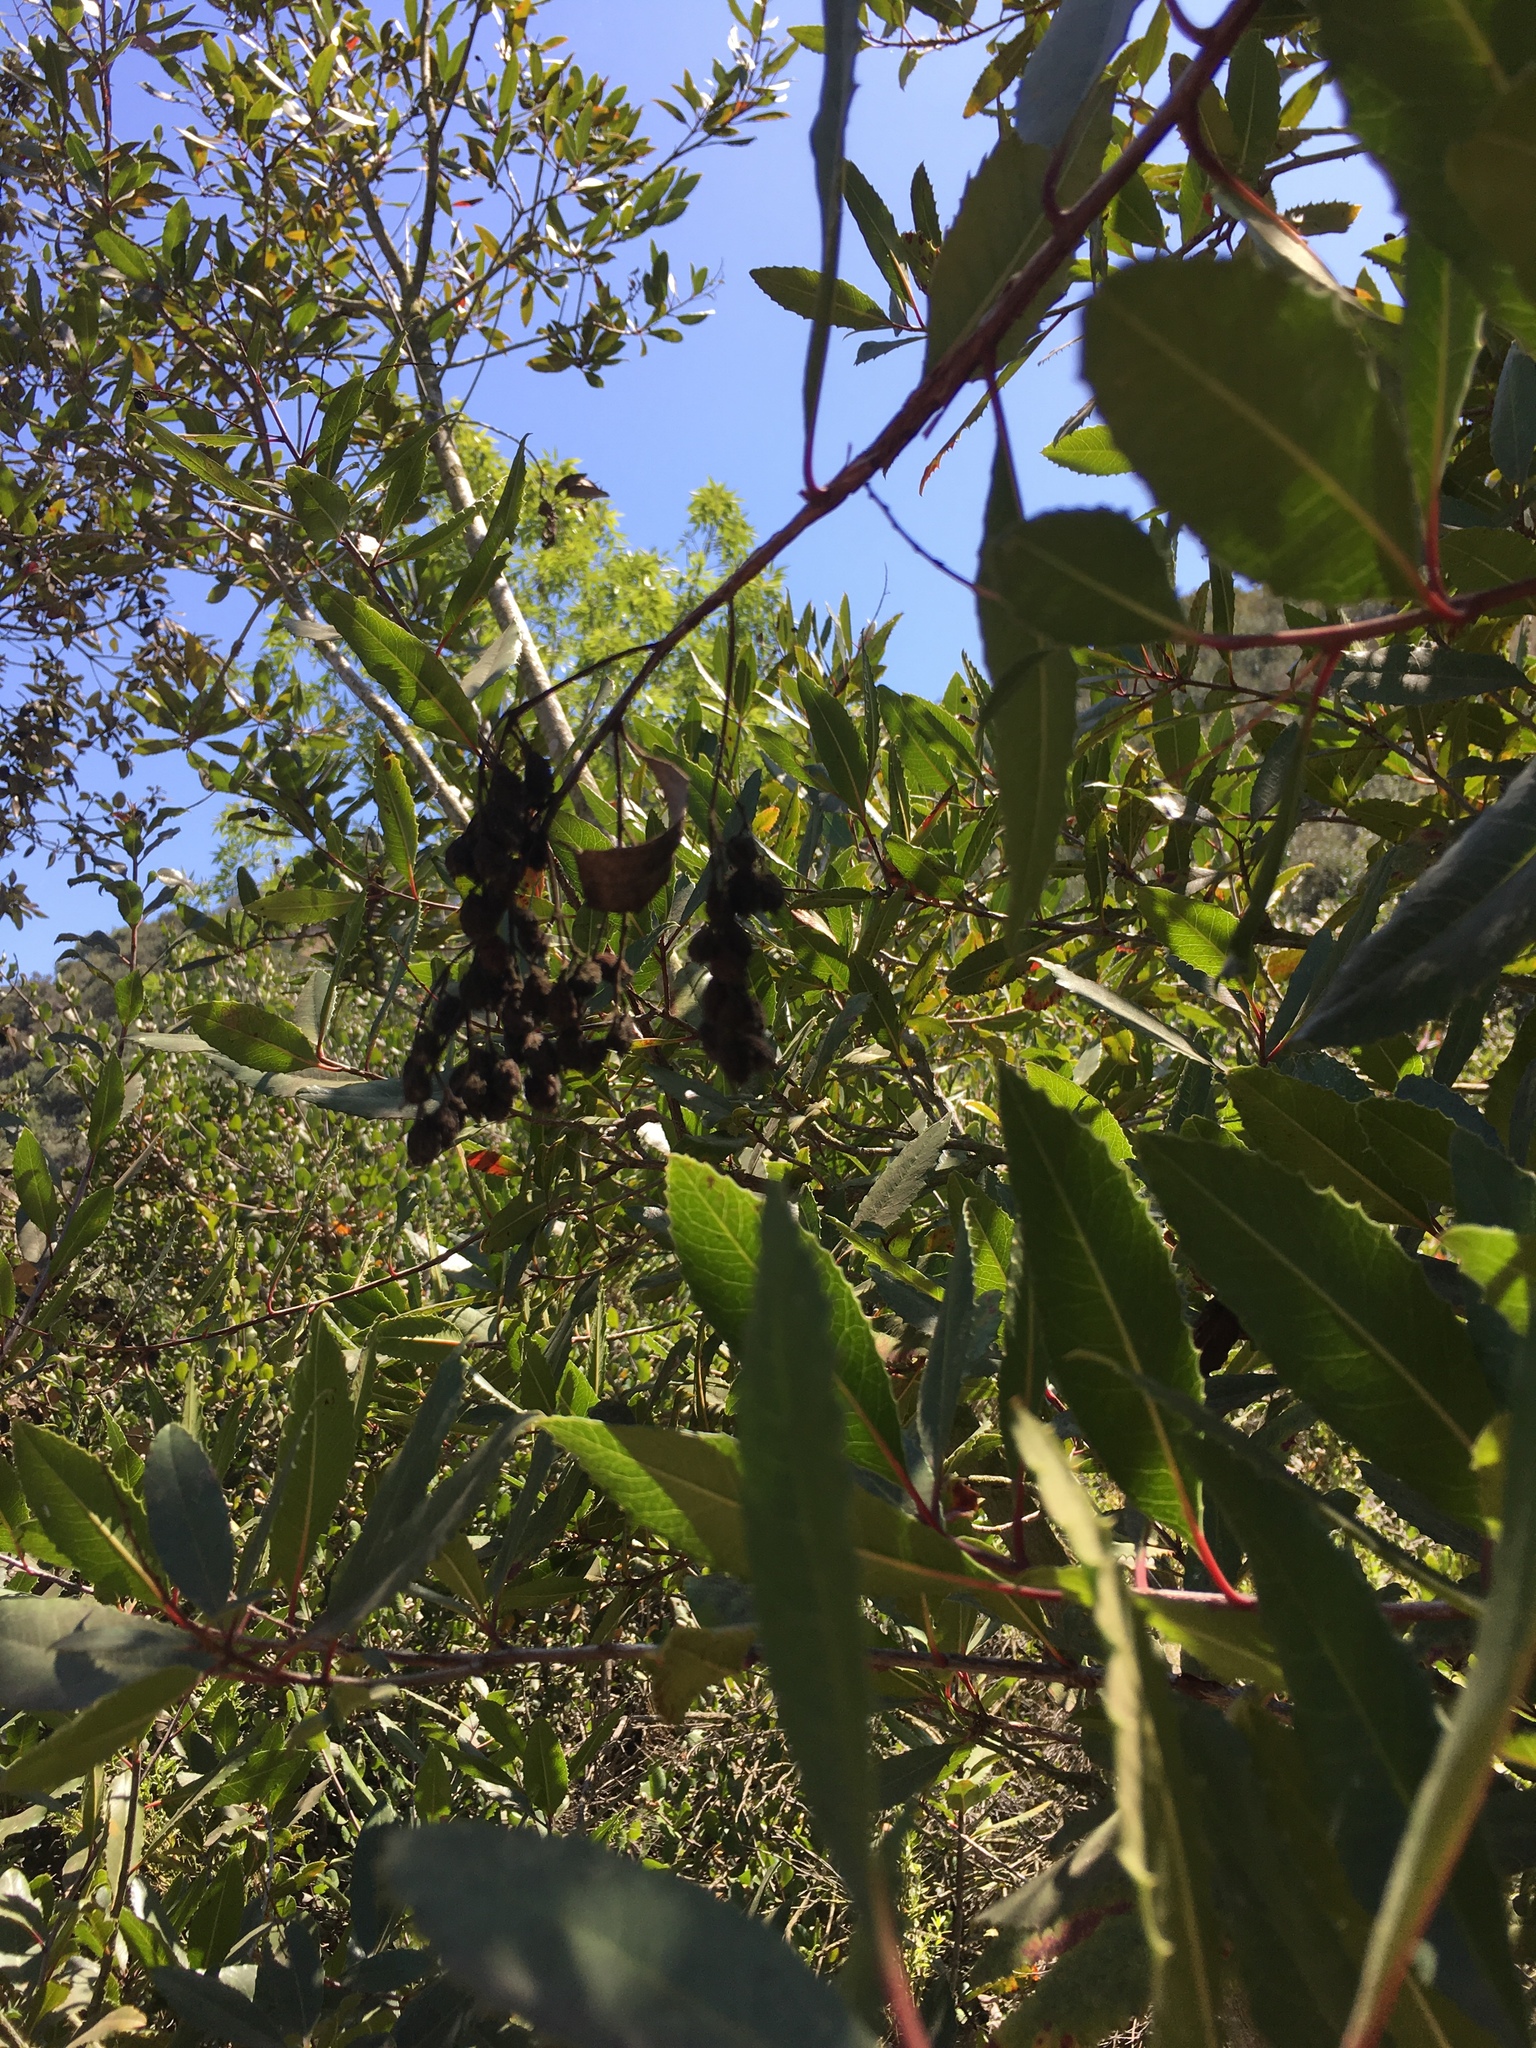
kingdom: Plantae
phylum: Tracheophyta
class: Magnoliopsida
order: Rosales
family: Rosaceae
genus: Heteromeles
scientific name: Heteromeles arbutifolia
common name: California-holly
